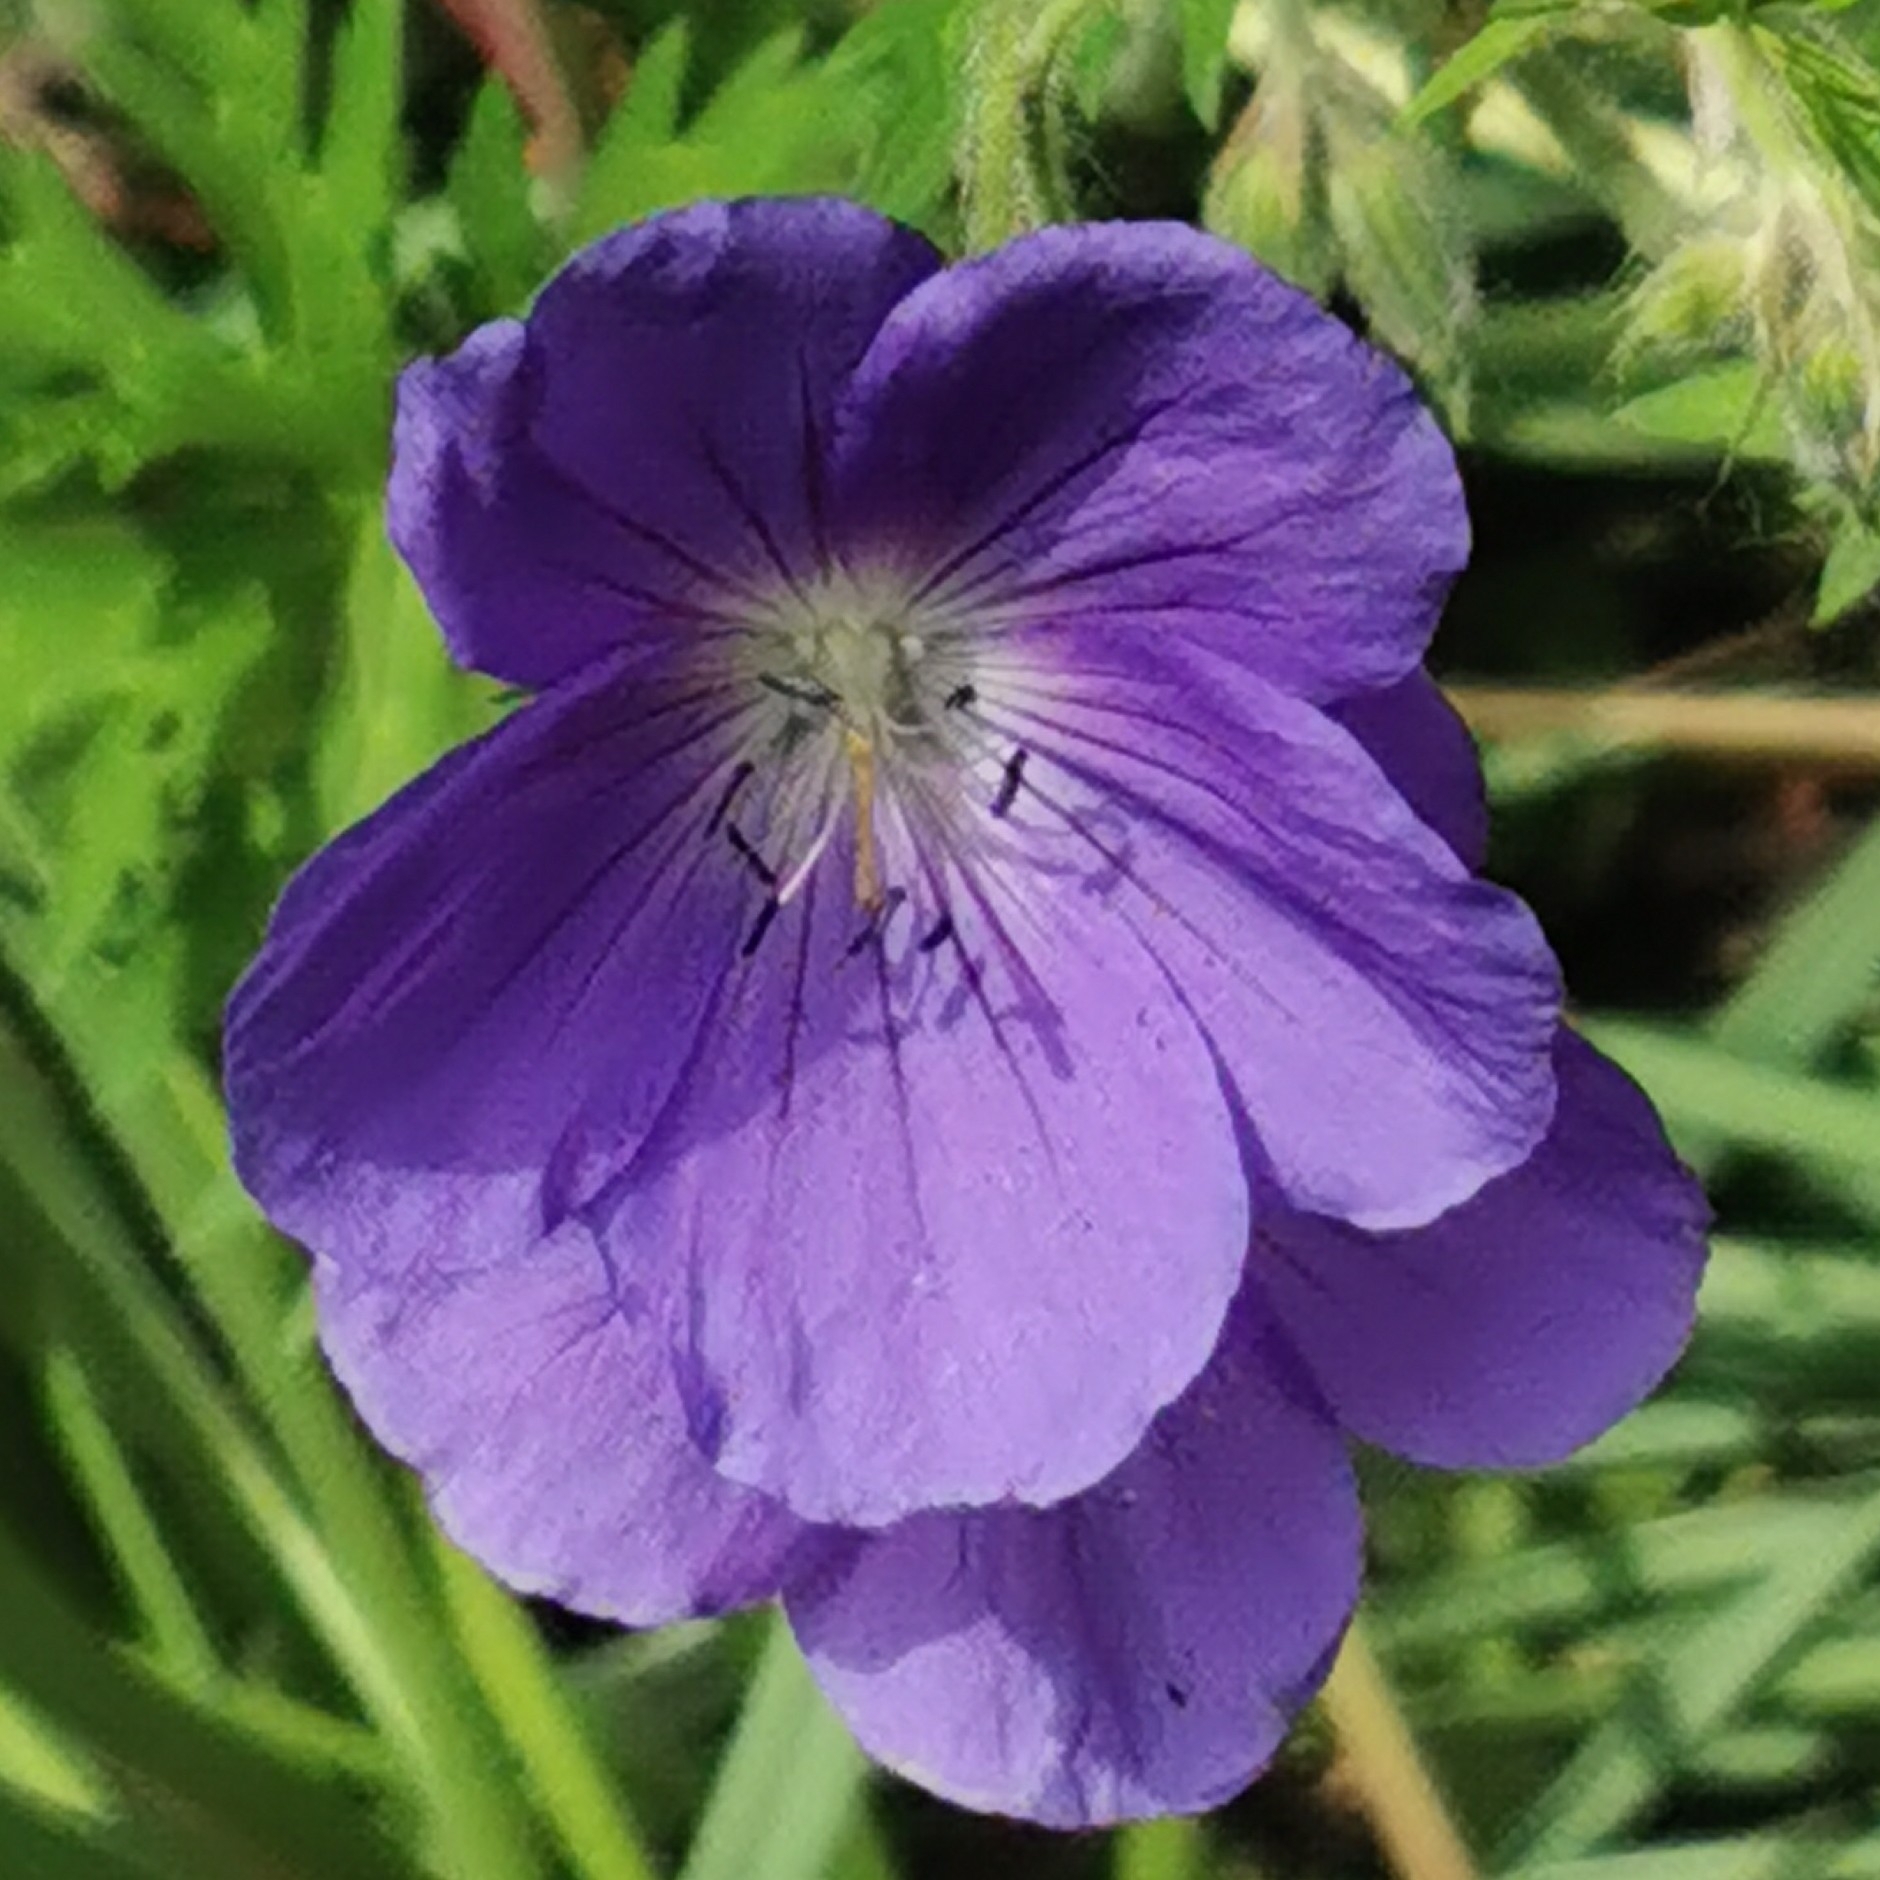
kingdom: Plantae
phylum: Tracheophyta
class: Magnoliopsida
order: Geraniales
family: Geraniaceae
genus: Geranium
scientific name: Geranium pratense
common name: Meadow crane's-bill
